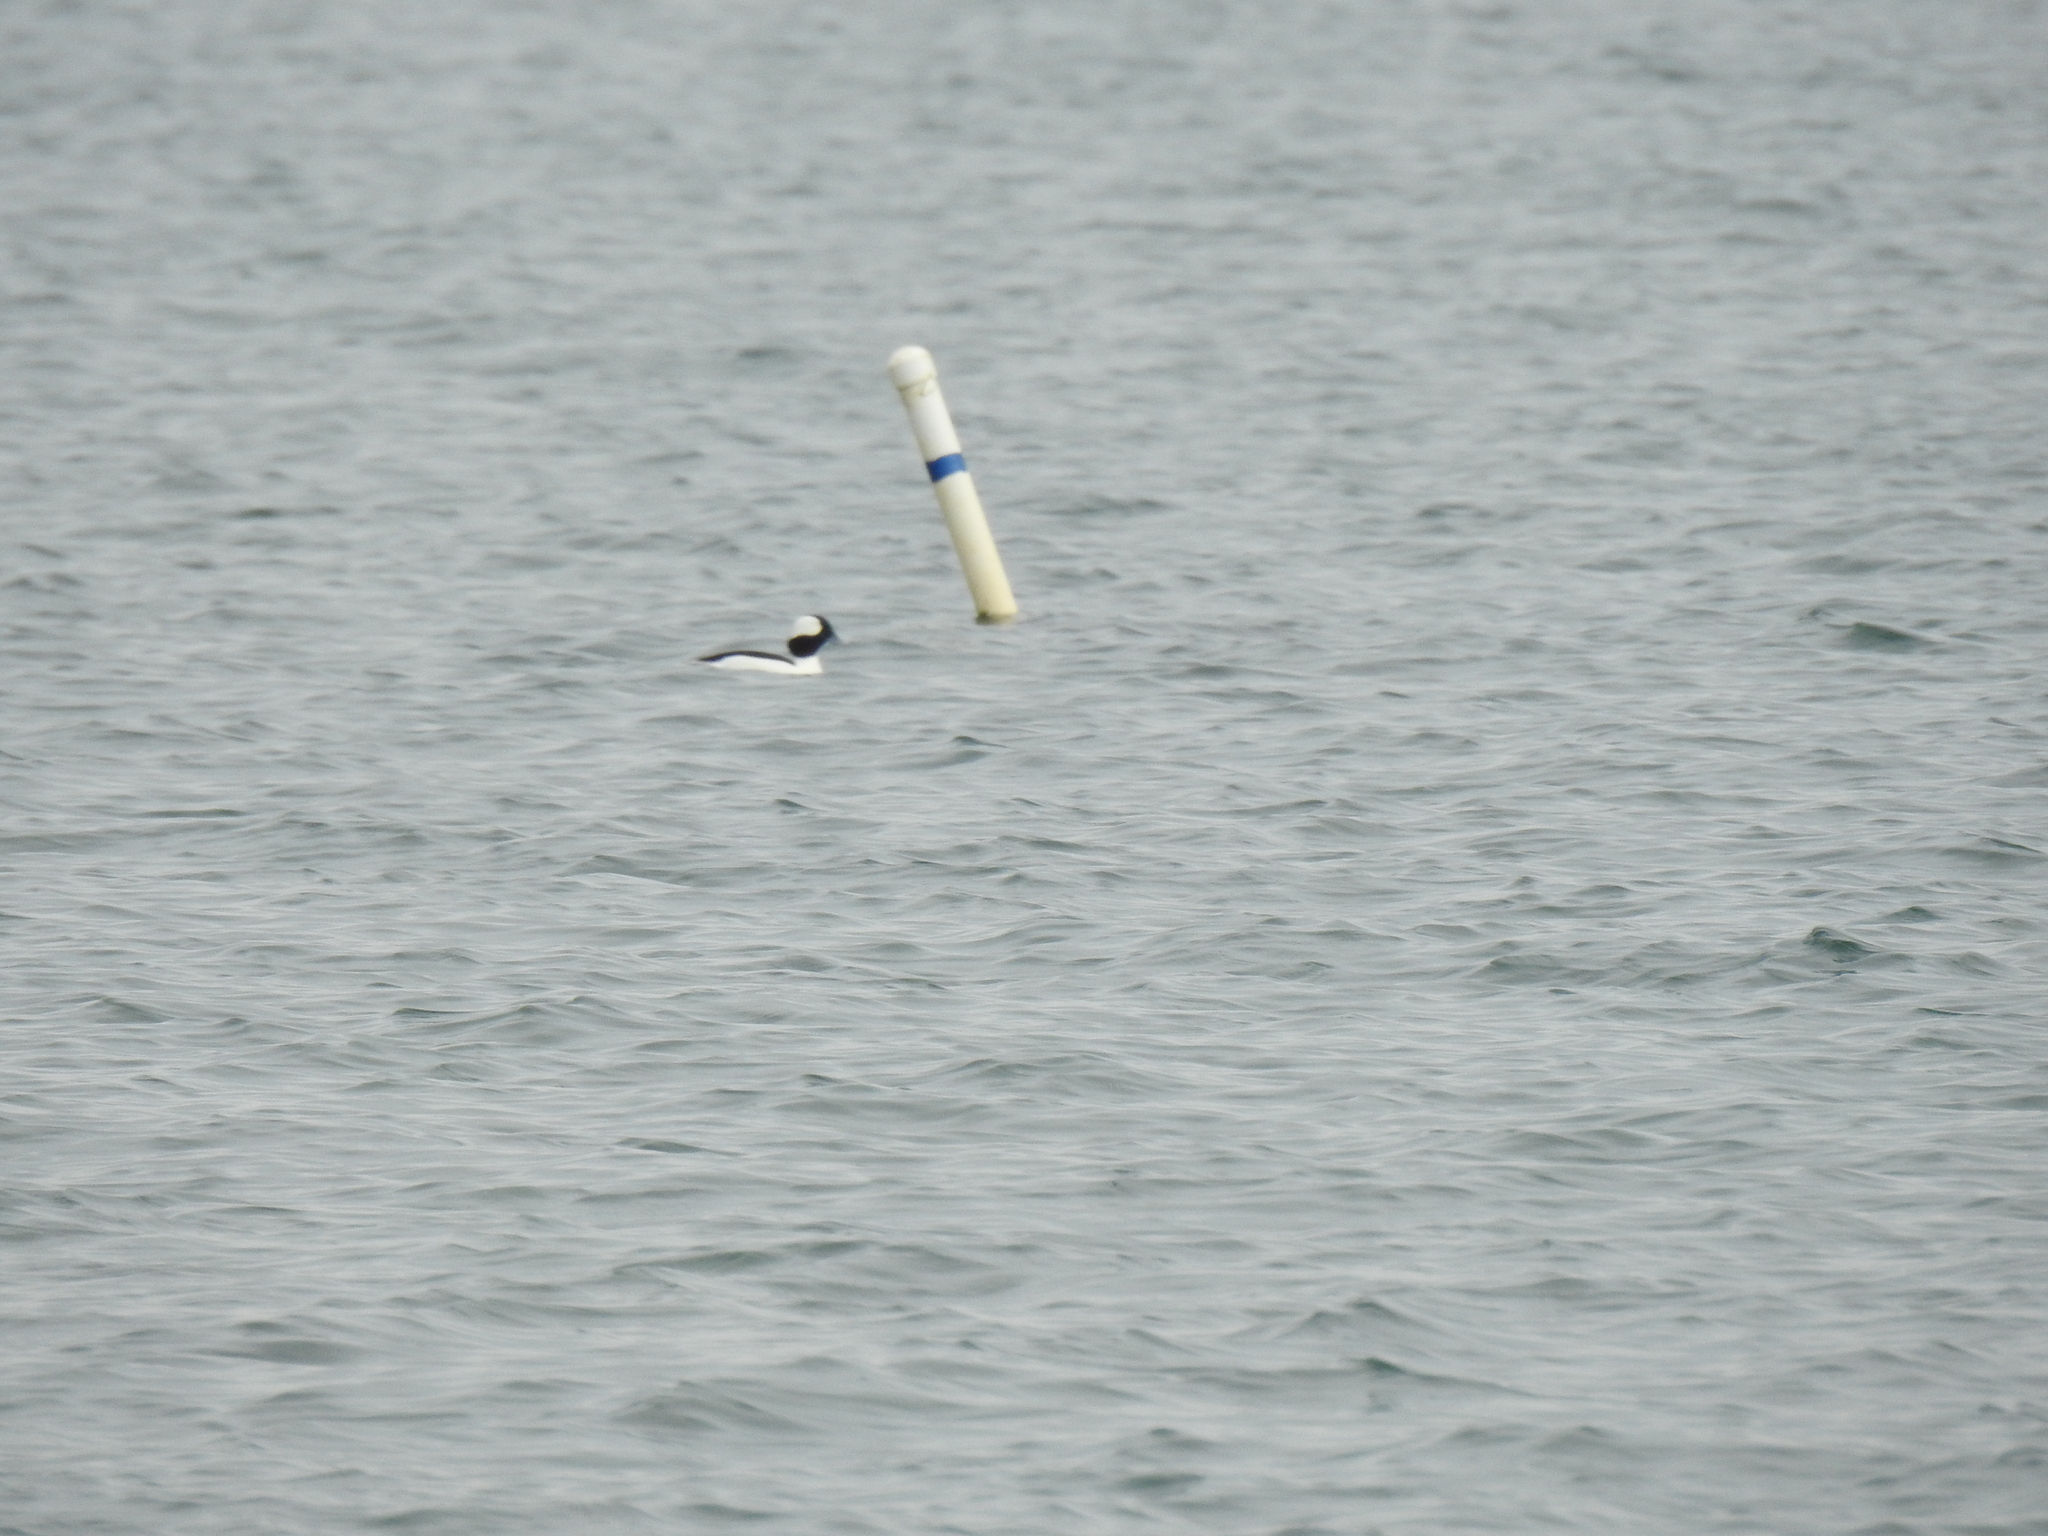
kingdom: Animalia
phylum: Chordata
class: Aves
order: Anseriformes
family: Anatidae
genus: Bucephala
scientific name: Bucephala albeola
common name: Bufflehead
